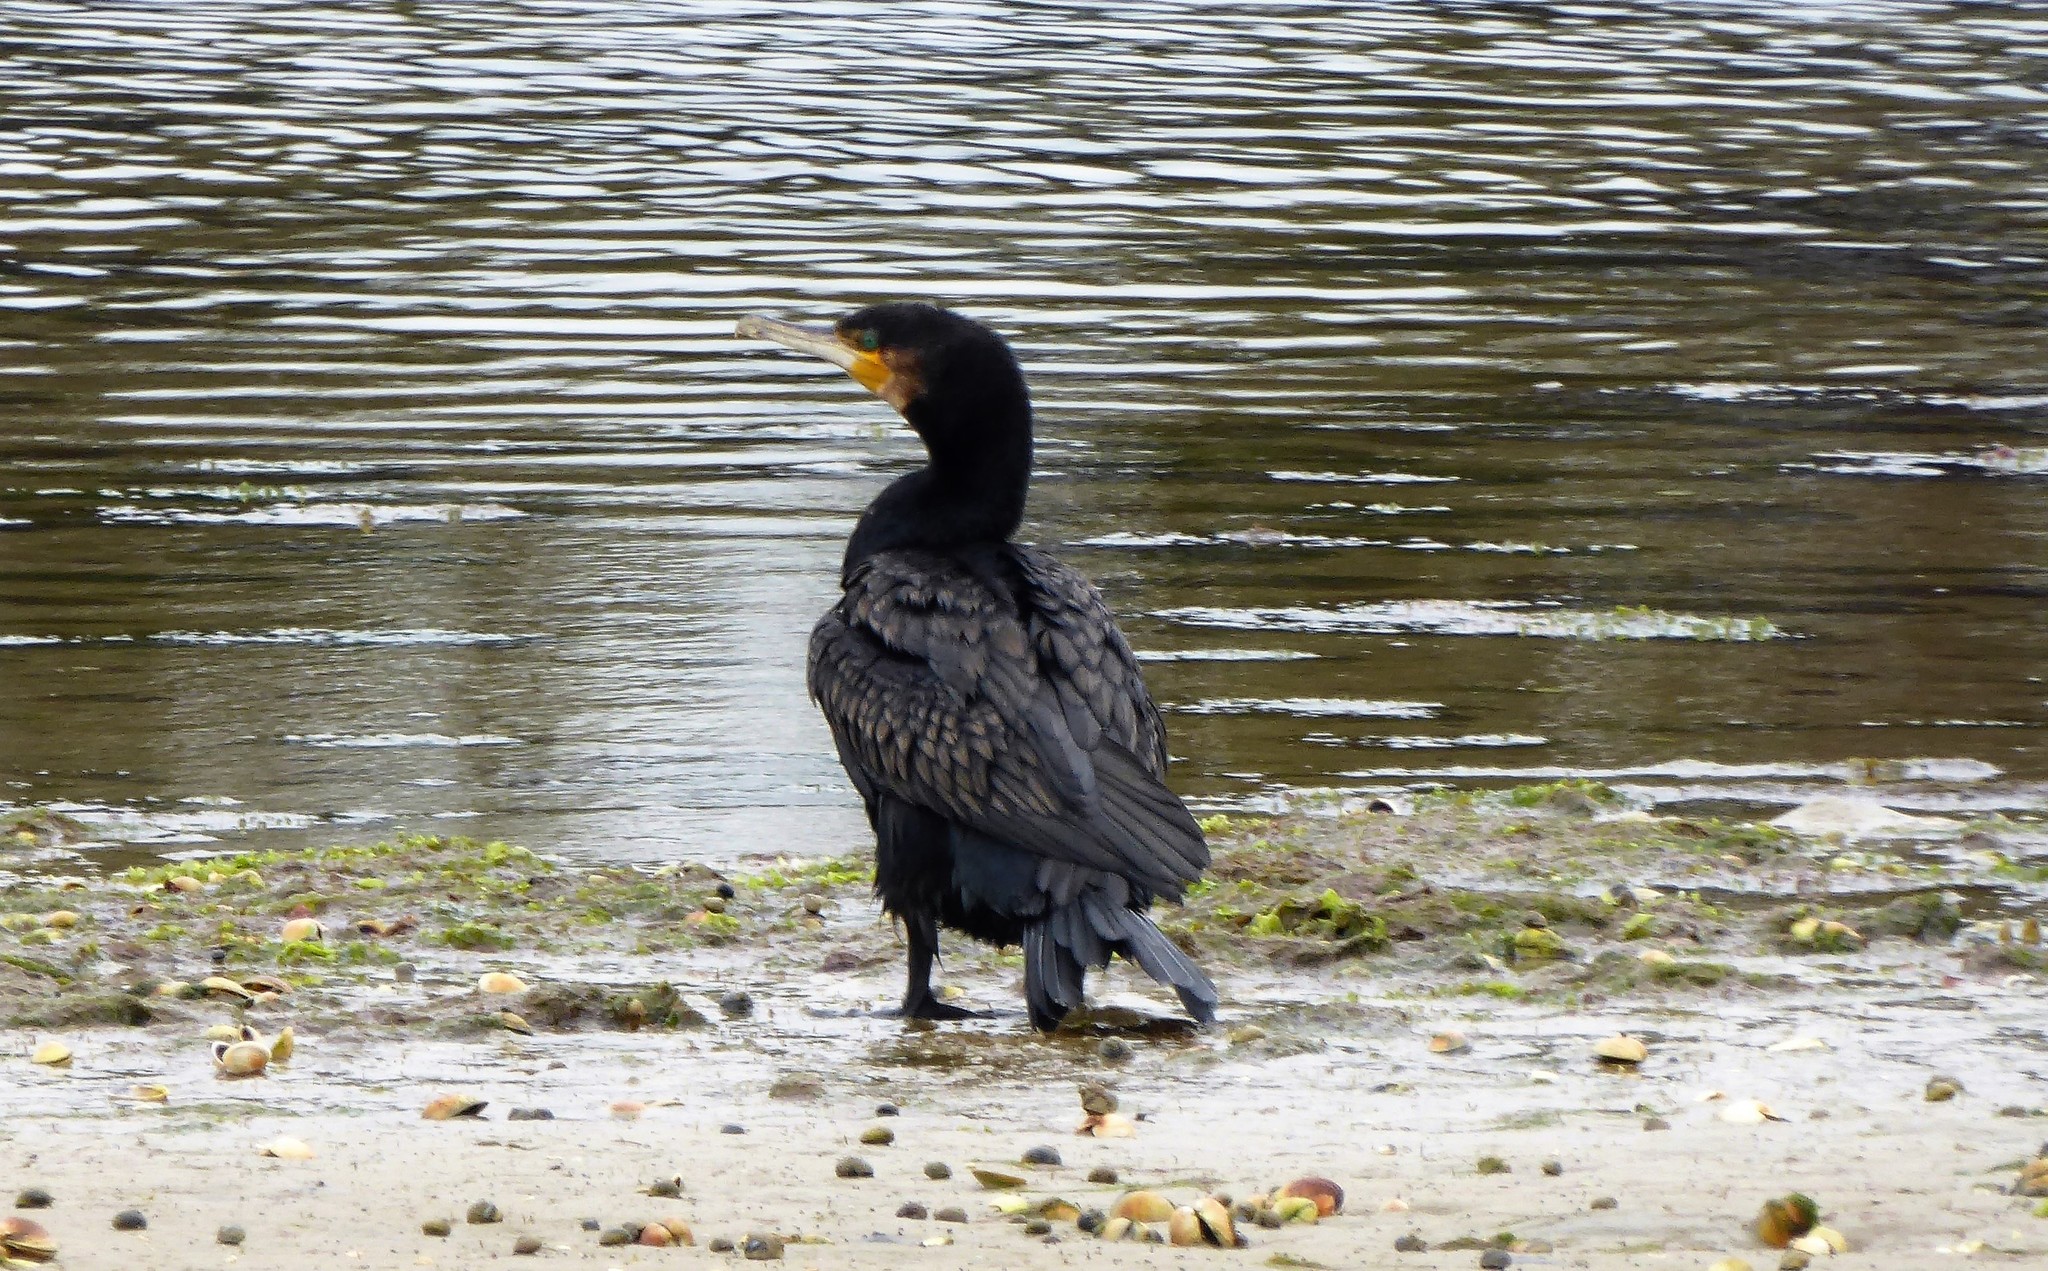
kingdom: Animalia
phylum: Chordata
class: Aves
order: Suliformes
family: Phalacrocoracidae
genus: Phalacrocorax
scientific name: Phalacrocorax carbo
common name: Great cormorant
